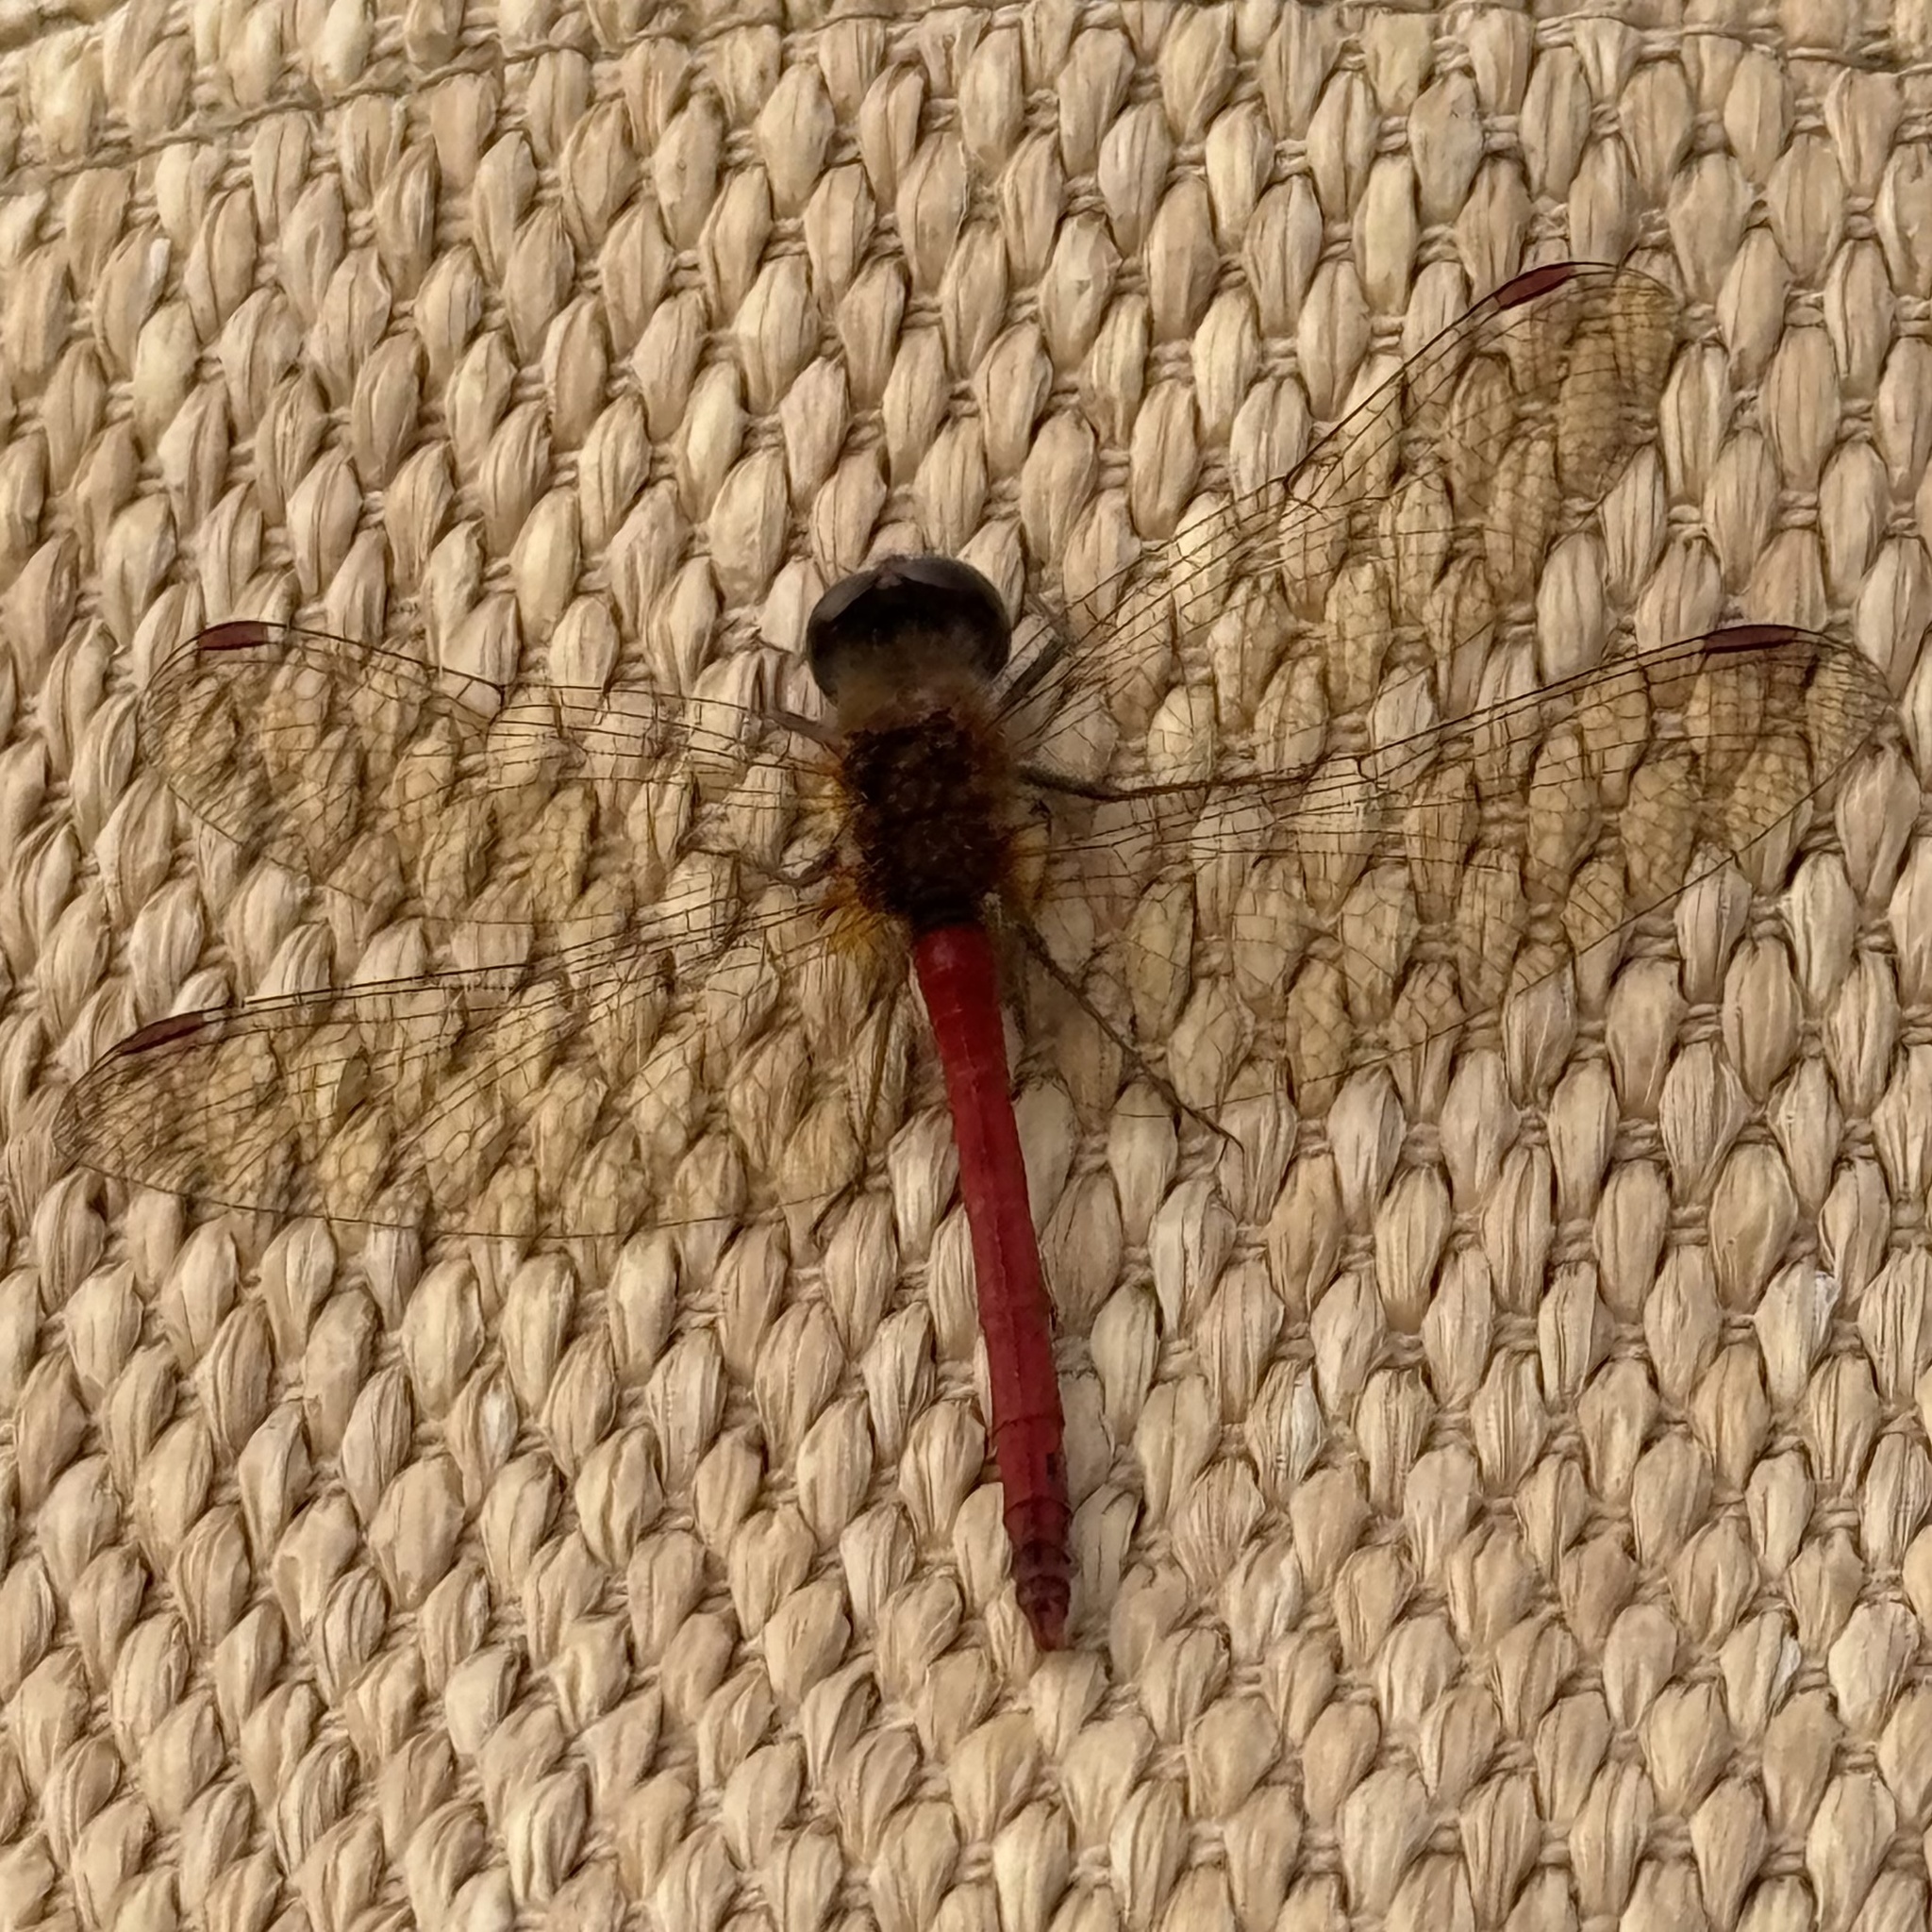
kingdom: Animalia
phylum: Arthropoda
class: Insecta
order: Odonata
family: Libellulidae
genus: Sympetrum
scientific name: Sympetrum vicinum
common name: Autumn meadowhawk
